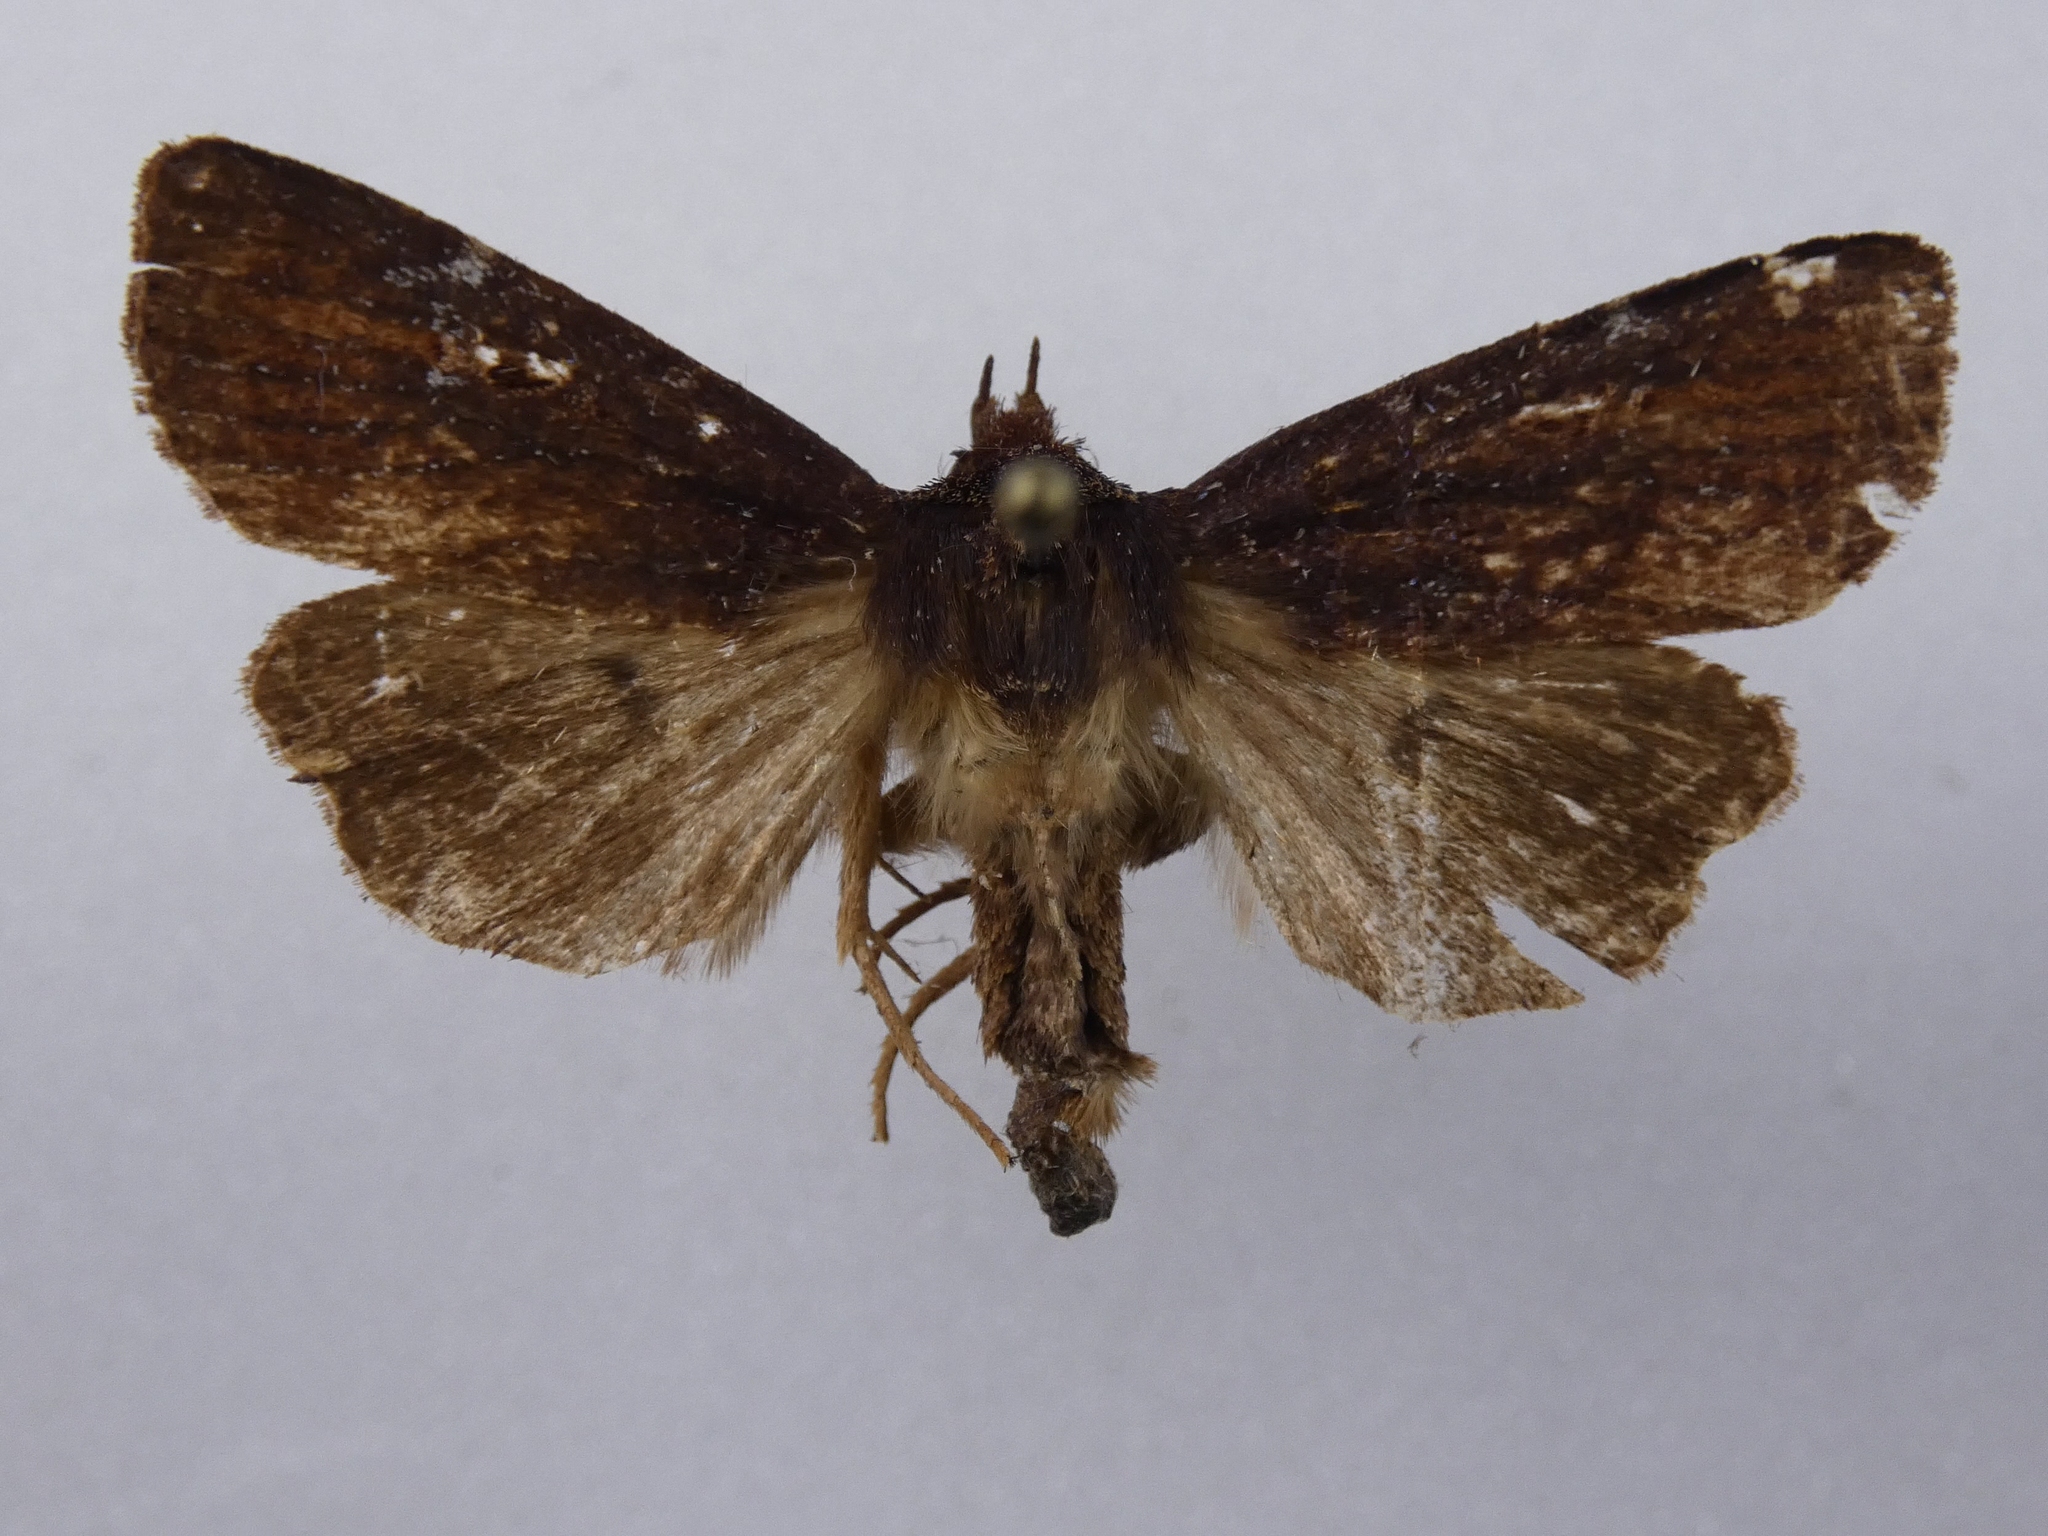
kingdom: Animalia
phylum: Arthropoda
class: Insecta
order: Lepidoptera
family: Noctuidae
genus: Austramathes
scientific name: Austramathes purpurea
